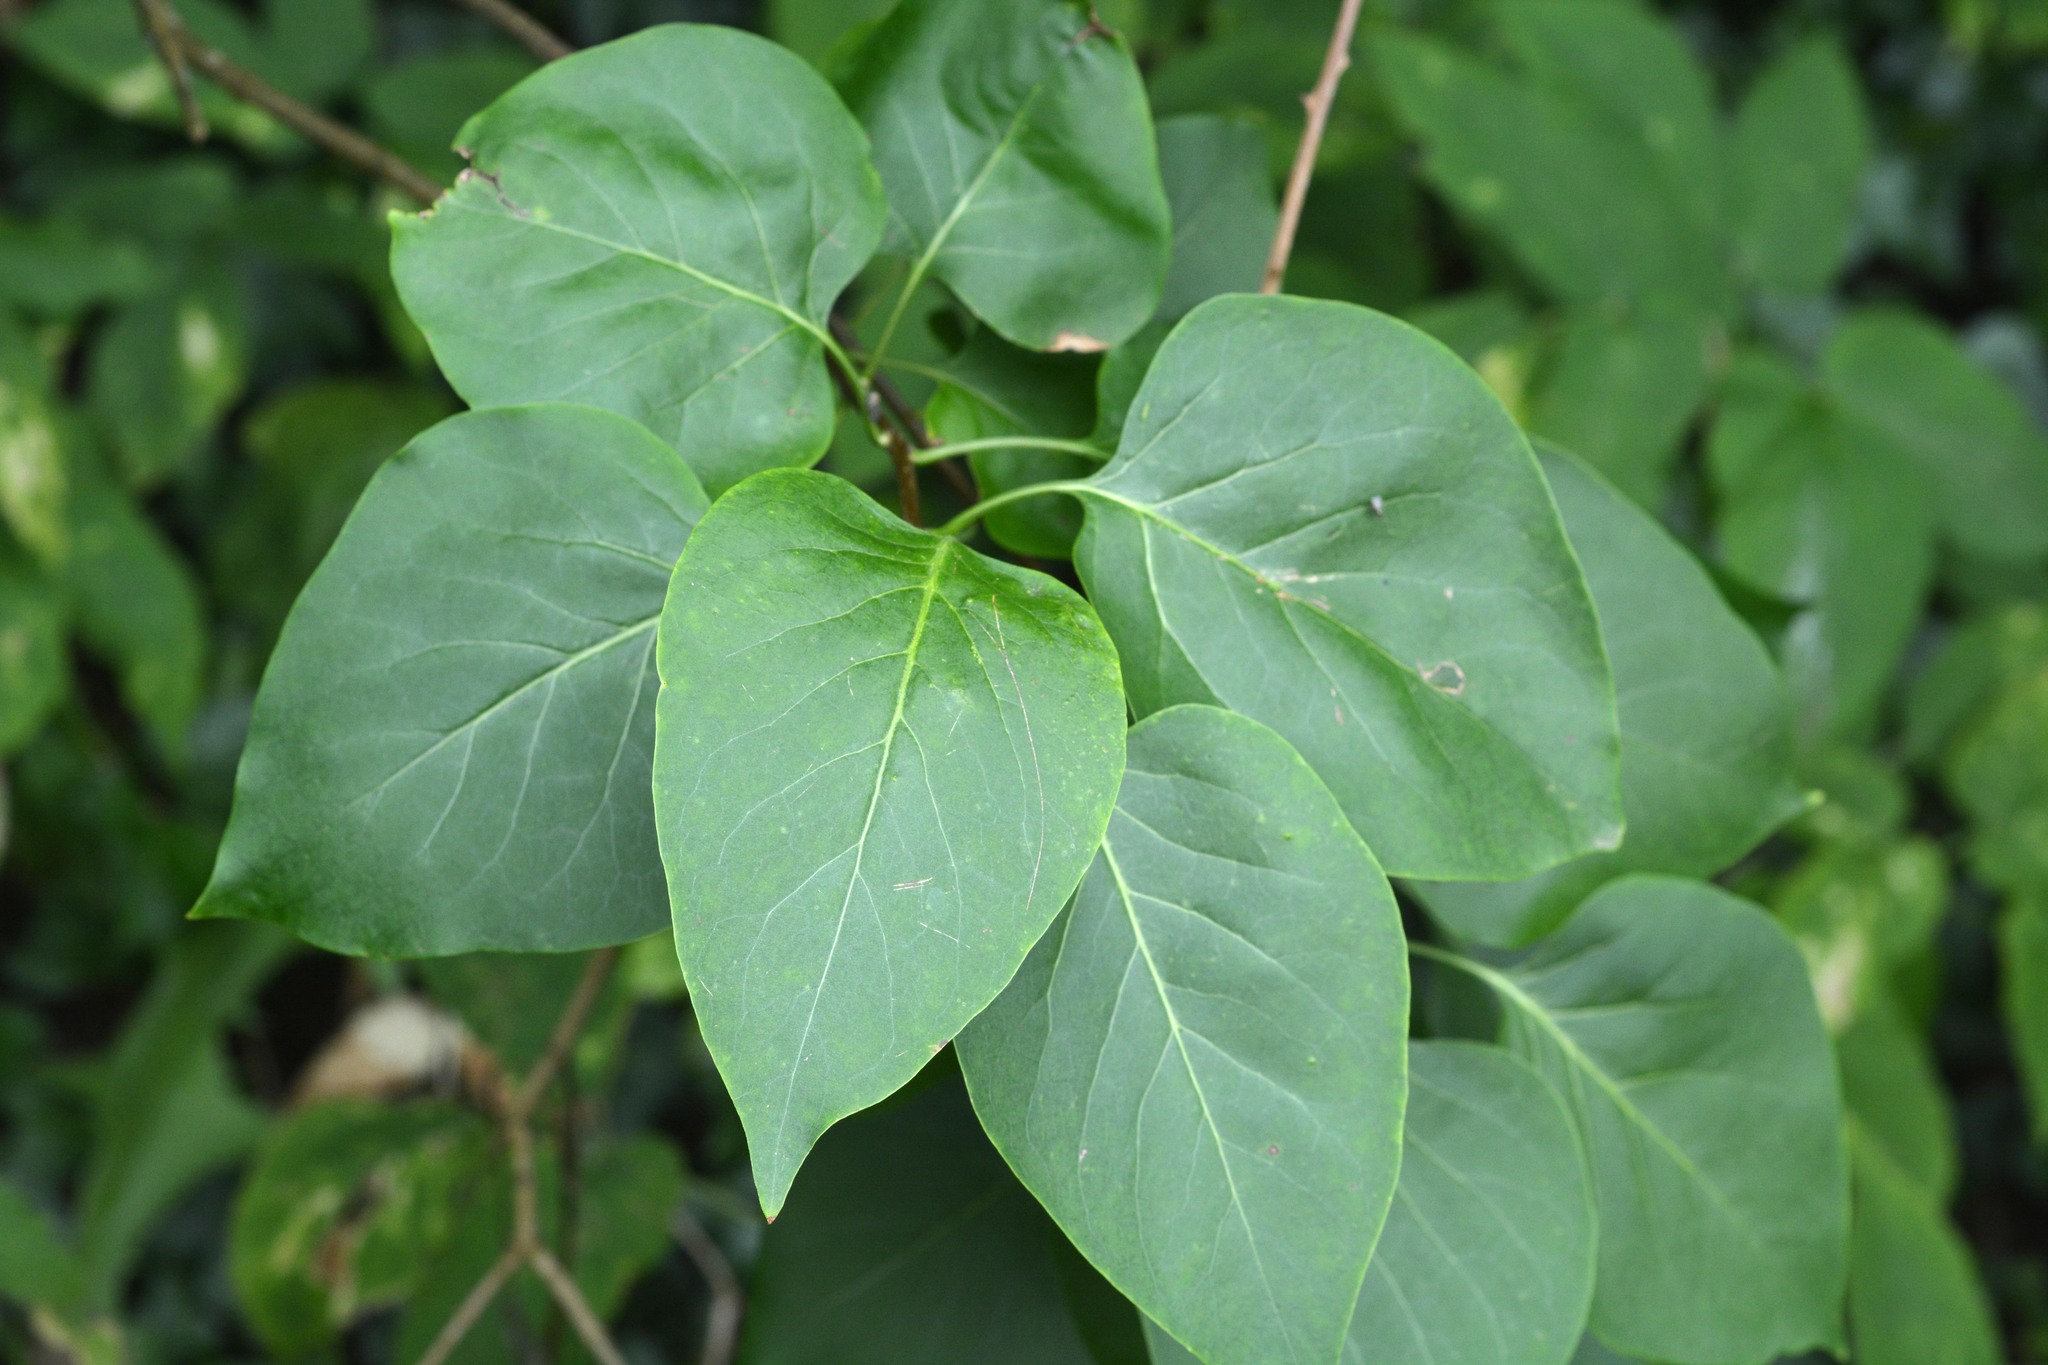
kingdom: Plantae
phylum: Tracheophyta
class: Magnoliopsida
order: Lamiales
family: Oleaceae
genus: Syringa
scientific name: Syringa vulgaris
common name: Common lilac
